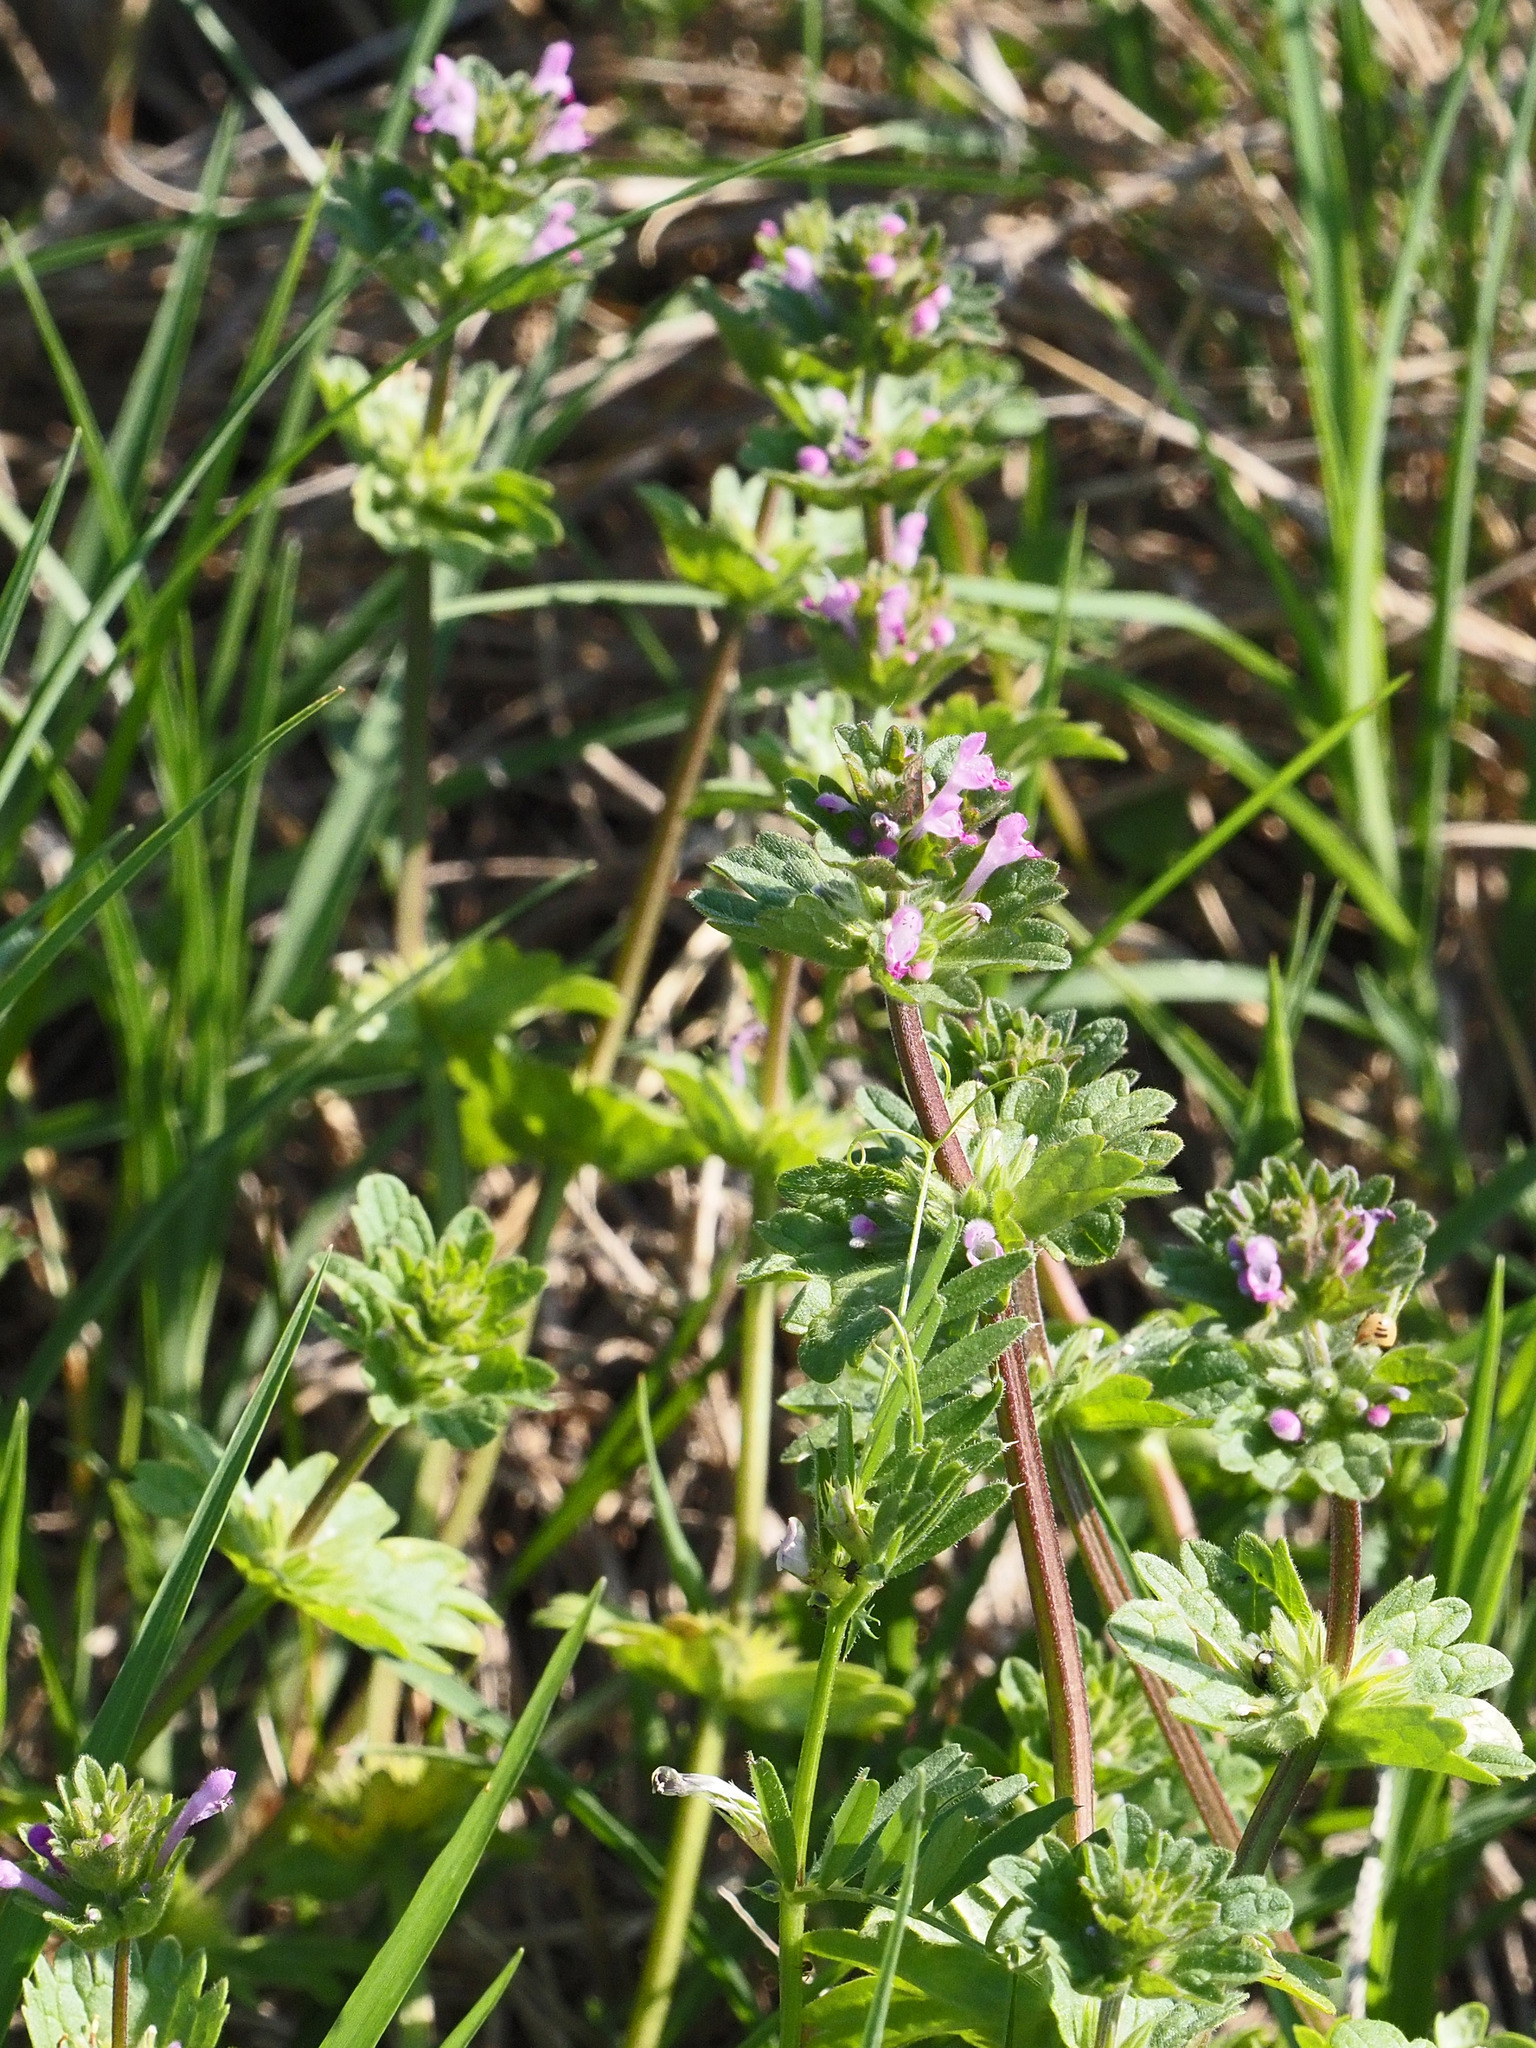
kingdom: Plantae
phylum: Tracheophyta
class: Magnoliopsida
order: Lamiales
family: Lamiaceae
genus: Lamium
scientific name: Lamium amplexicaule
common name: Henbit dead-nettle
